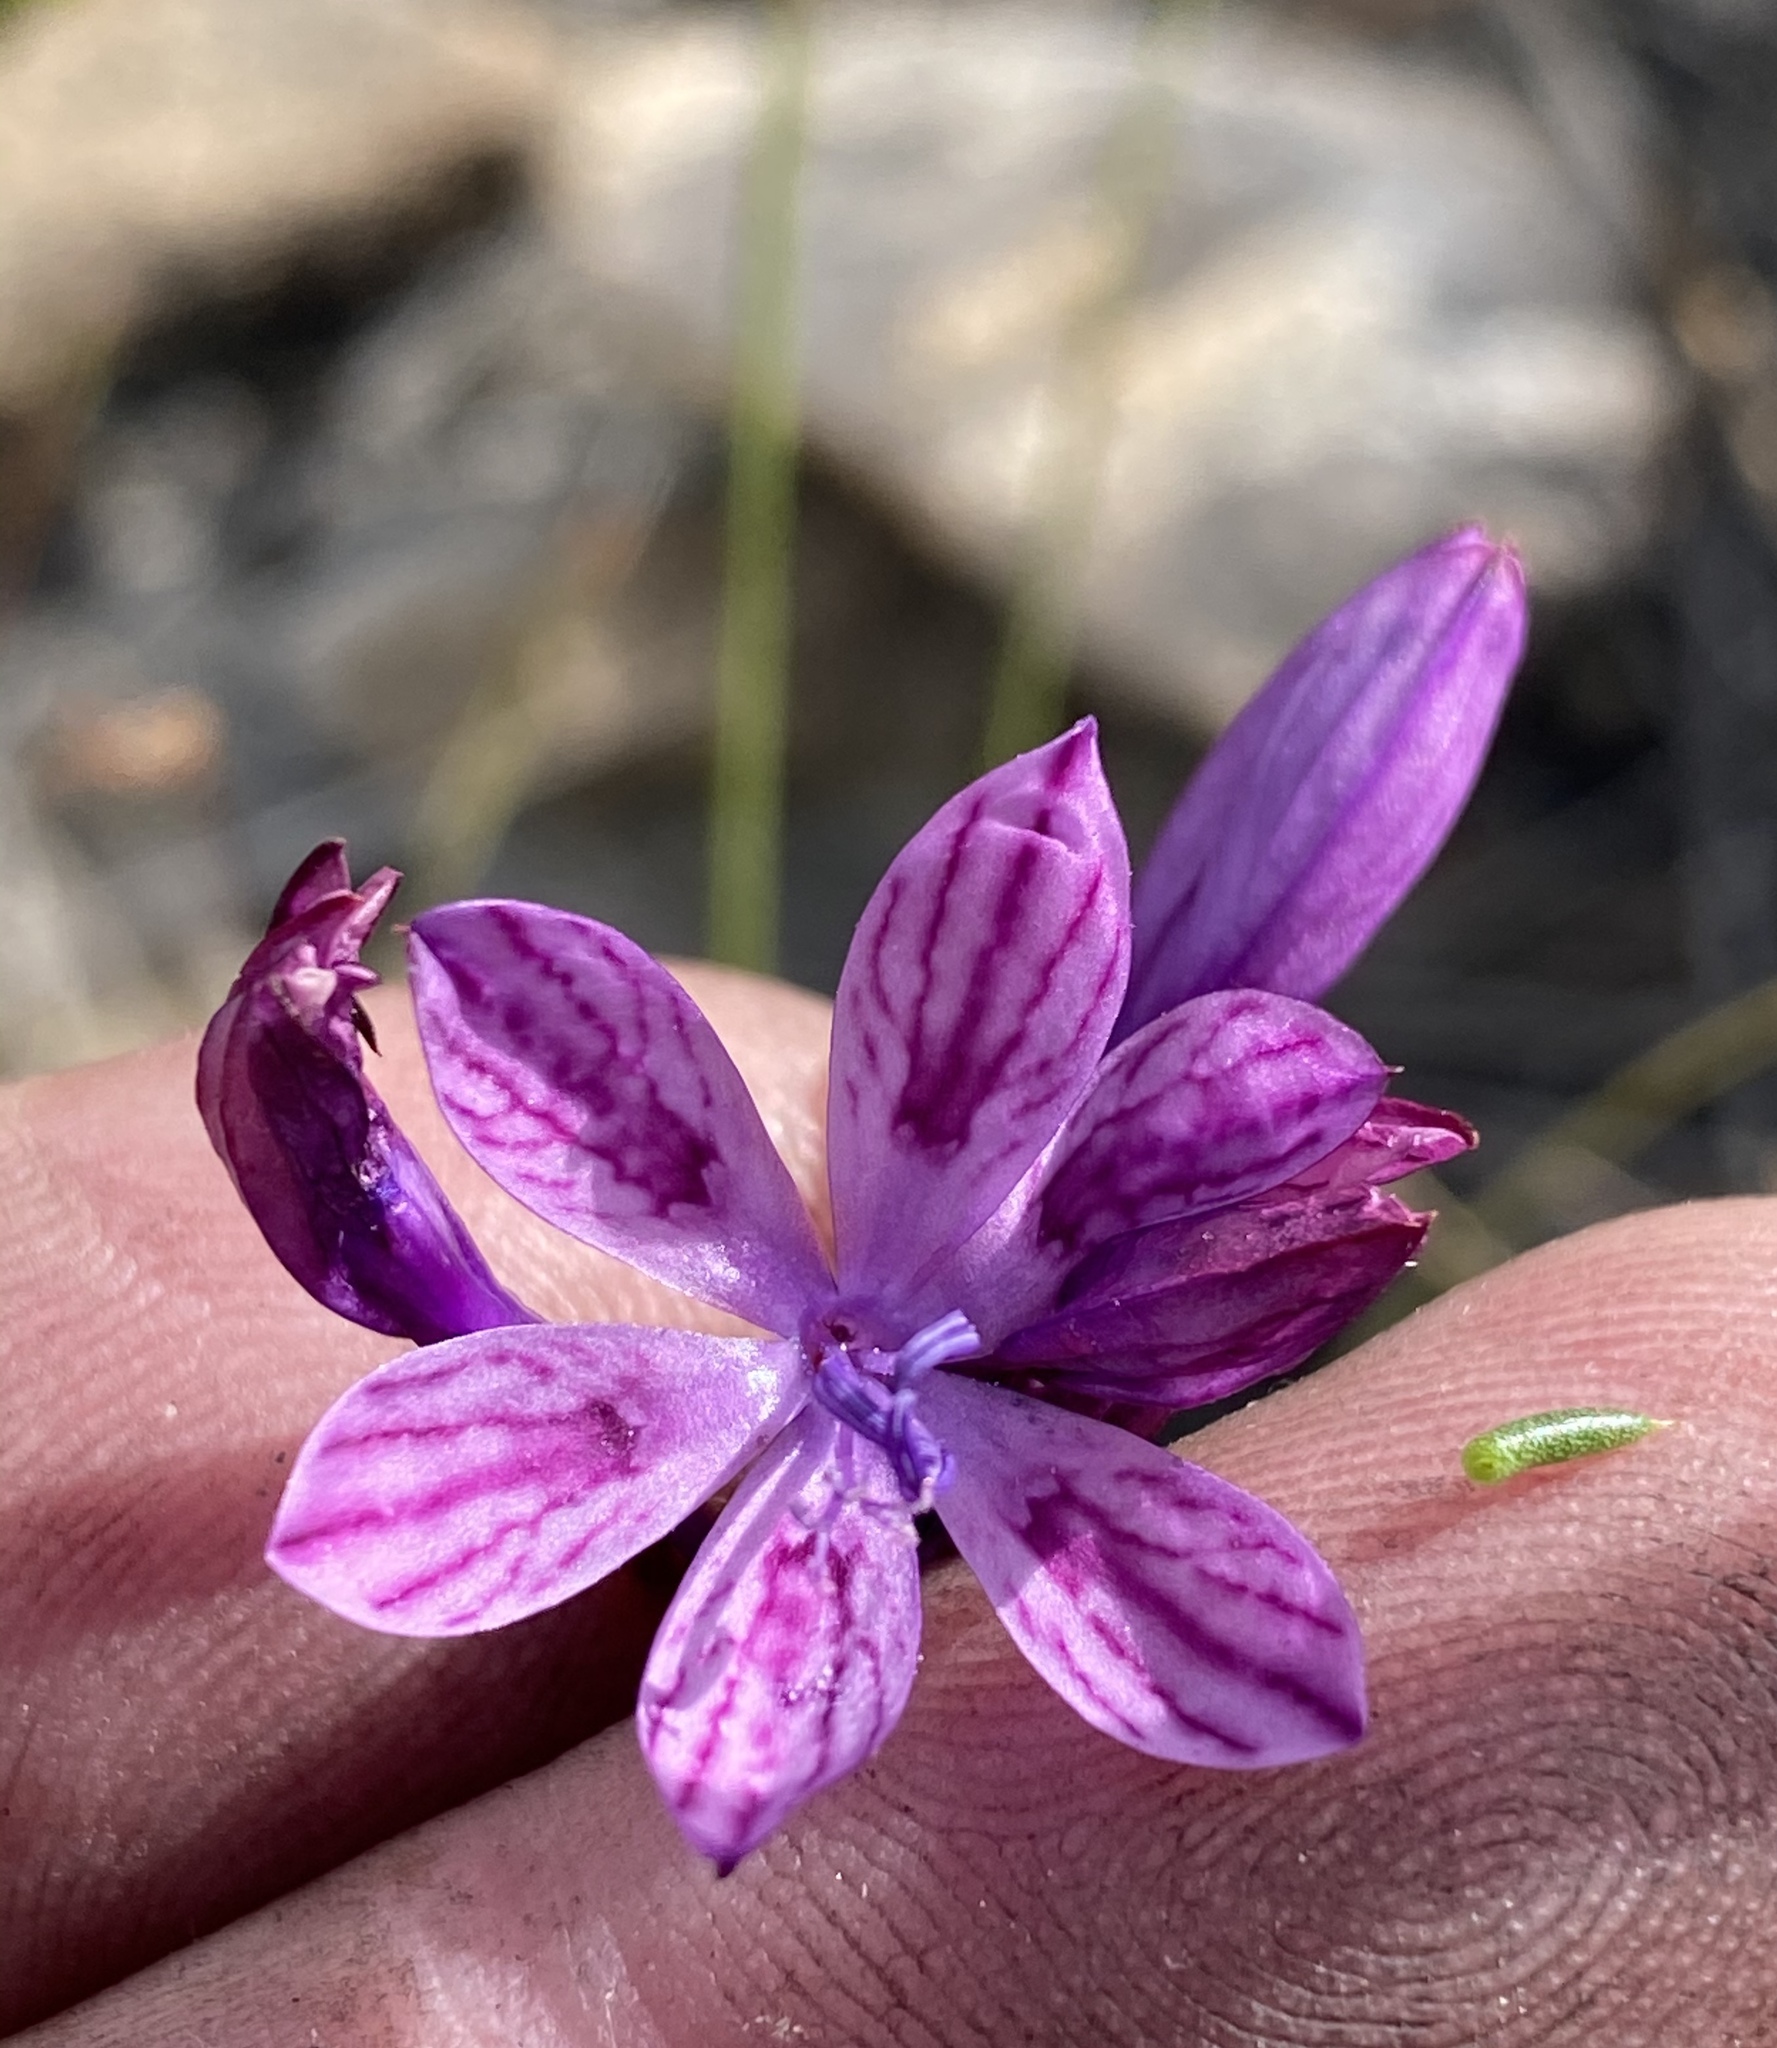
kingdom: Plantae
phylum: Tracheophyta
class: Liliopsida
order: Asparagales
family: Iridaceae
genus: Thereianthus
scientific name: Thereianthus bracteolatus
